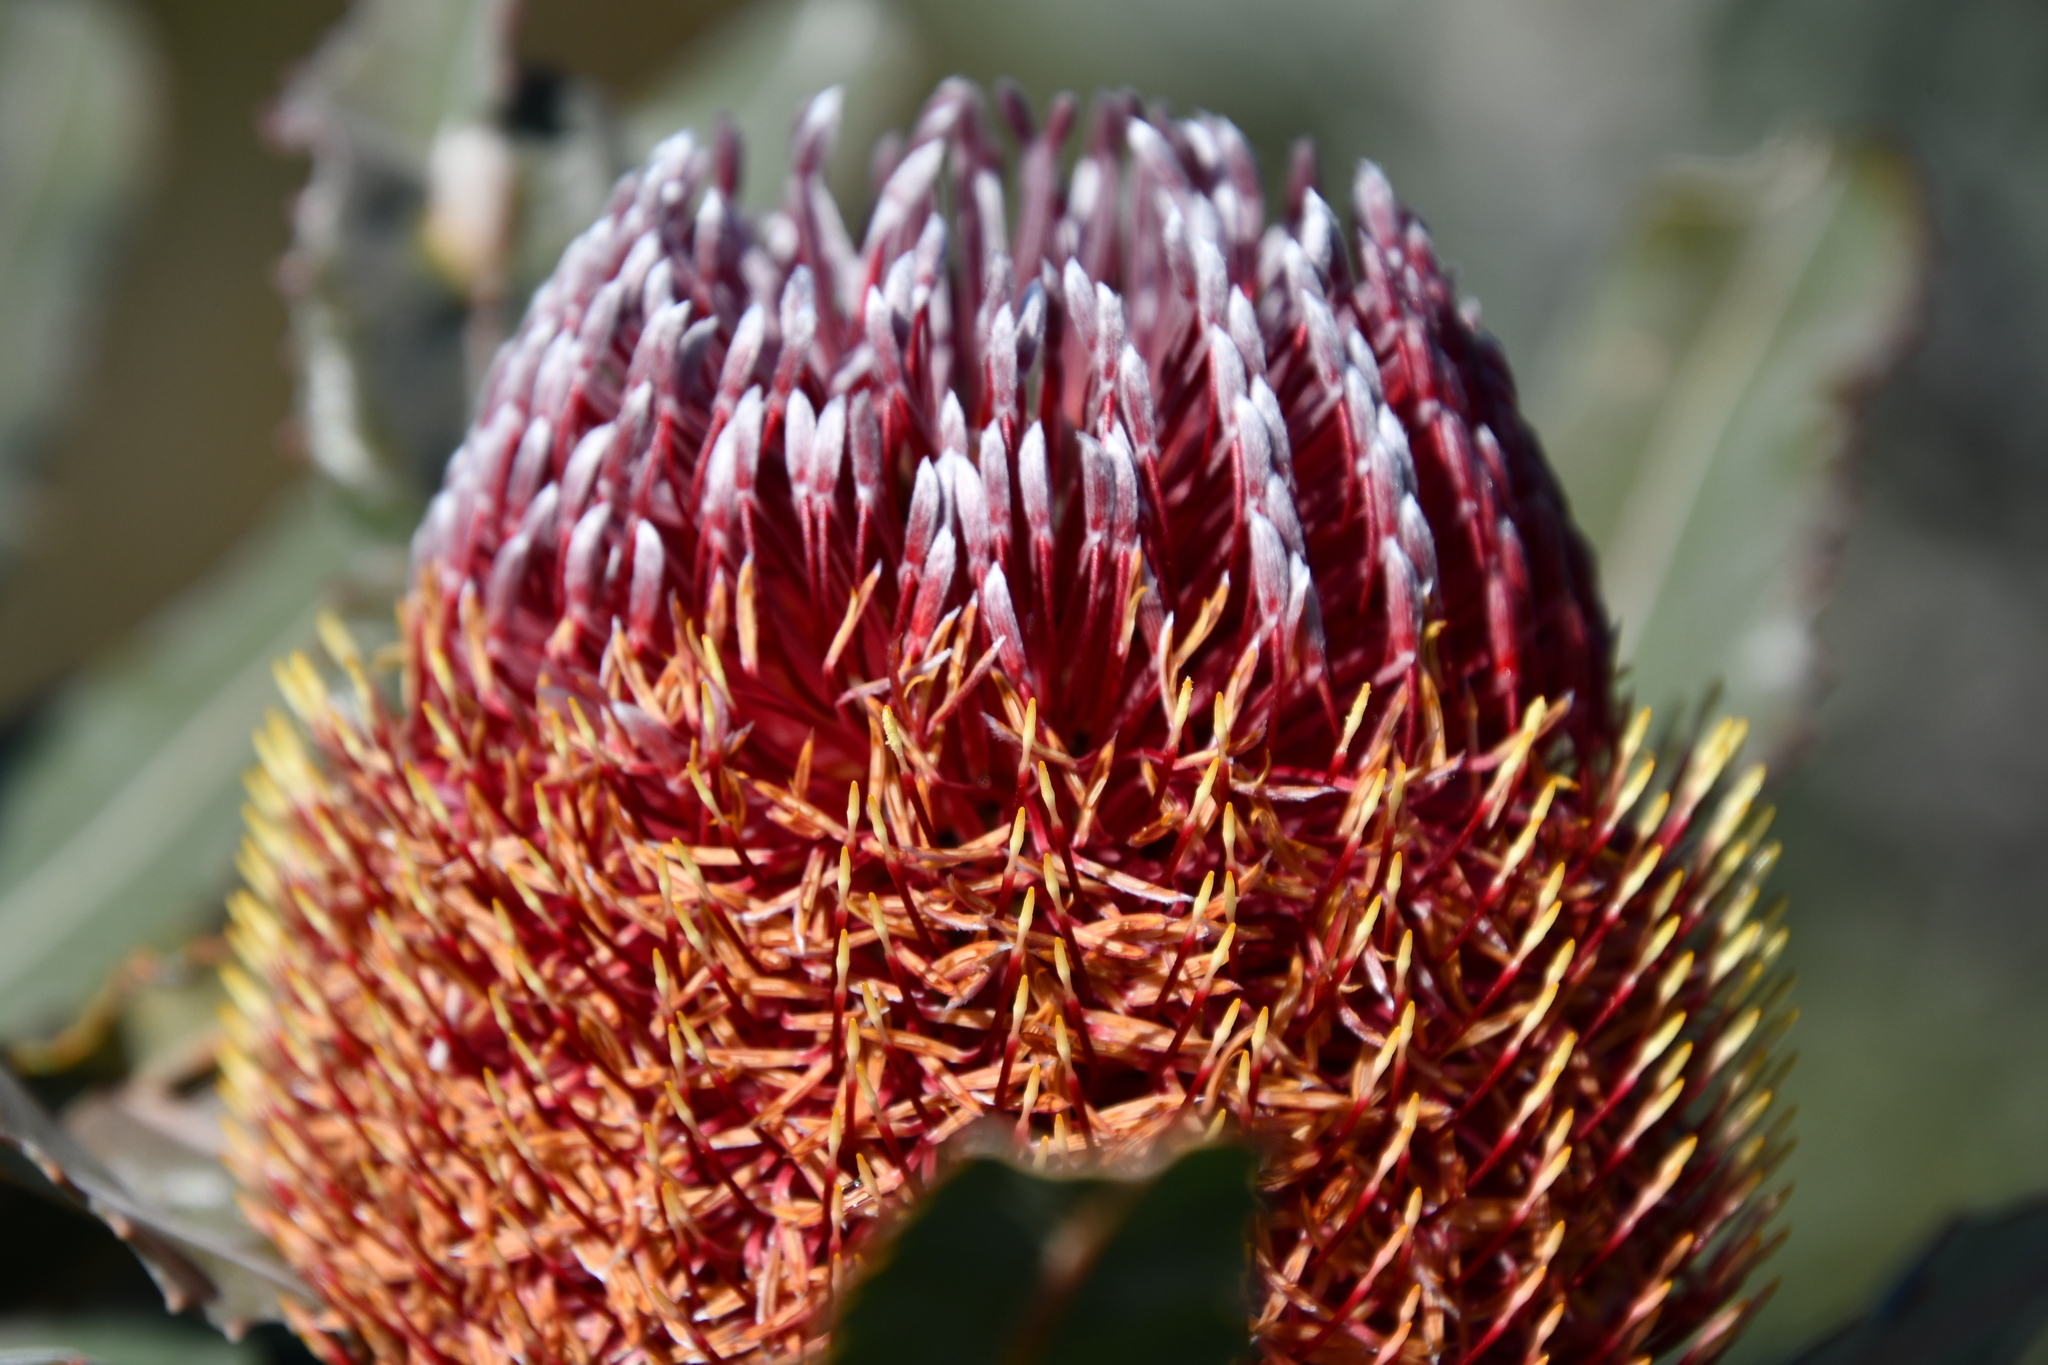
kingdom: Plantae
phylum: Tracheophyta
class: Magnoliopsida
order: Proteales
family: Proteaceae
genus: Banksia
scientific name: Banksia menziesii
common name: Menzie's banksia
